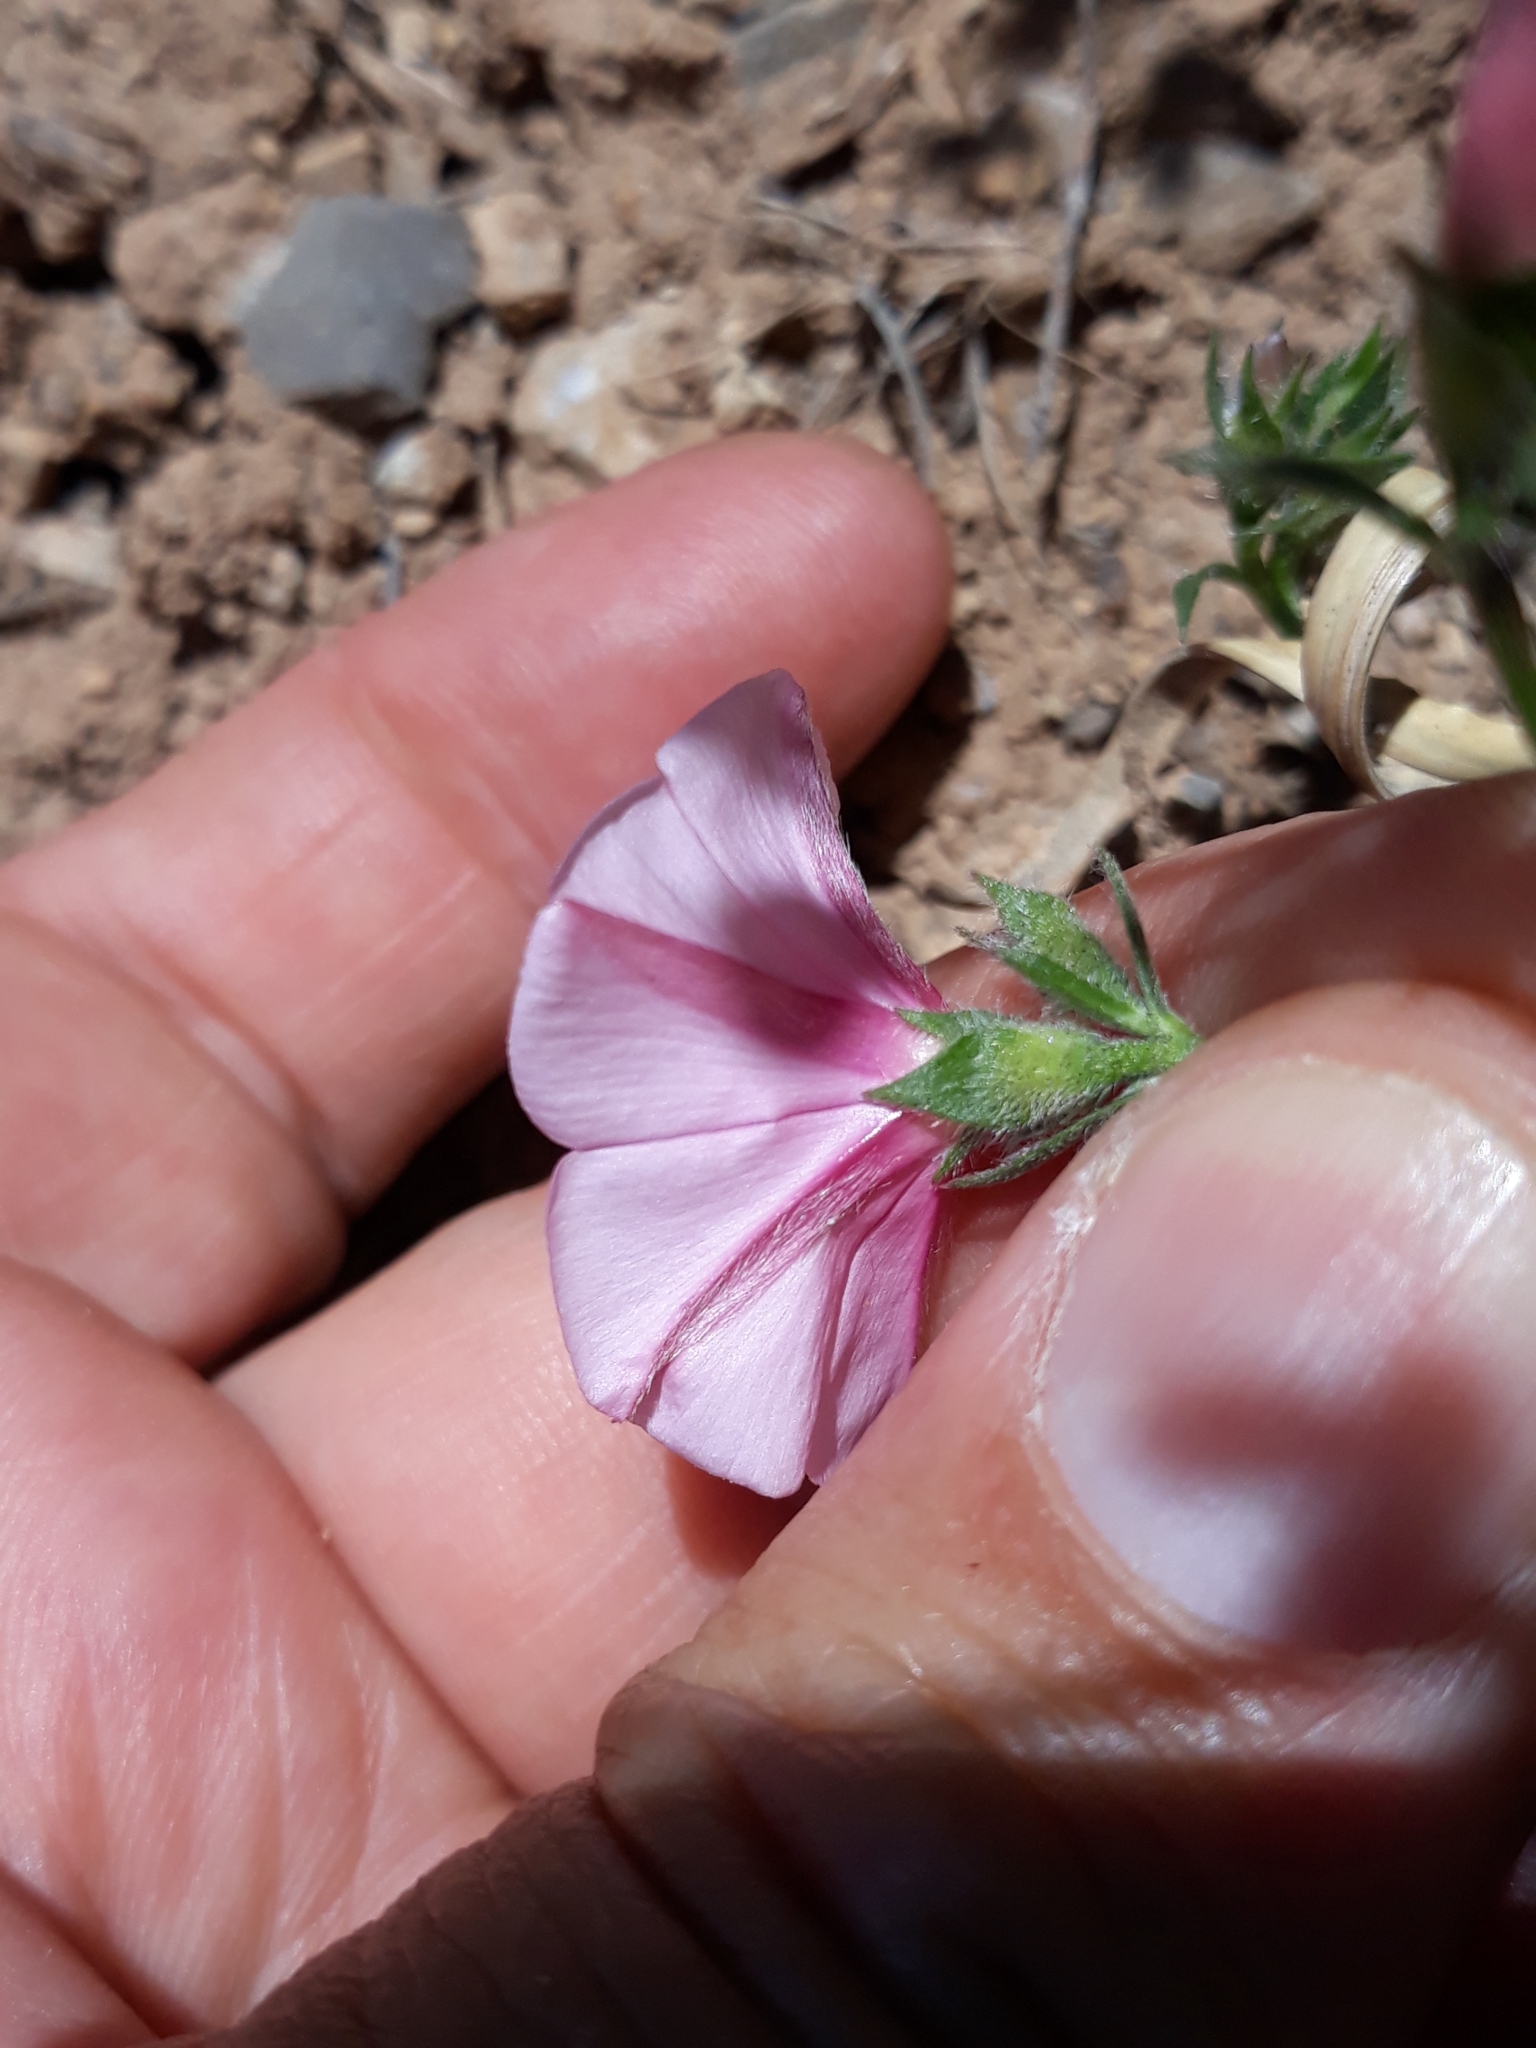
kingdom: Plantae
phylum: Tracheophyta
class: Magnoliopsida
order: Solanales
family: Convolvulaceae
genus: Convolvulus
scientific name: Convolvulus cantabrica
